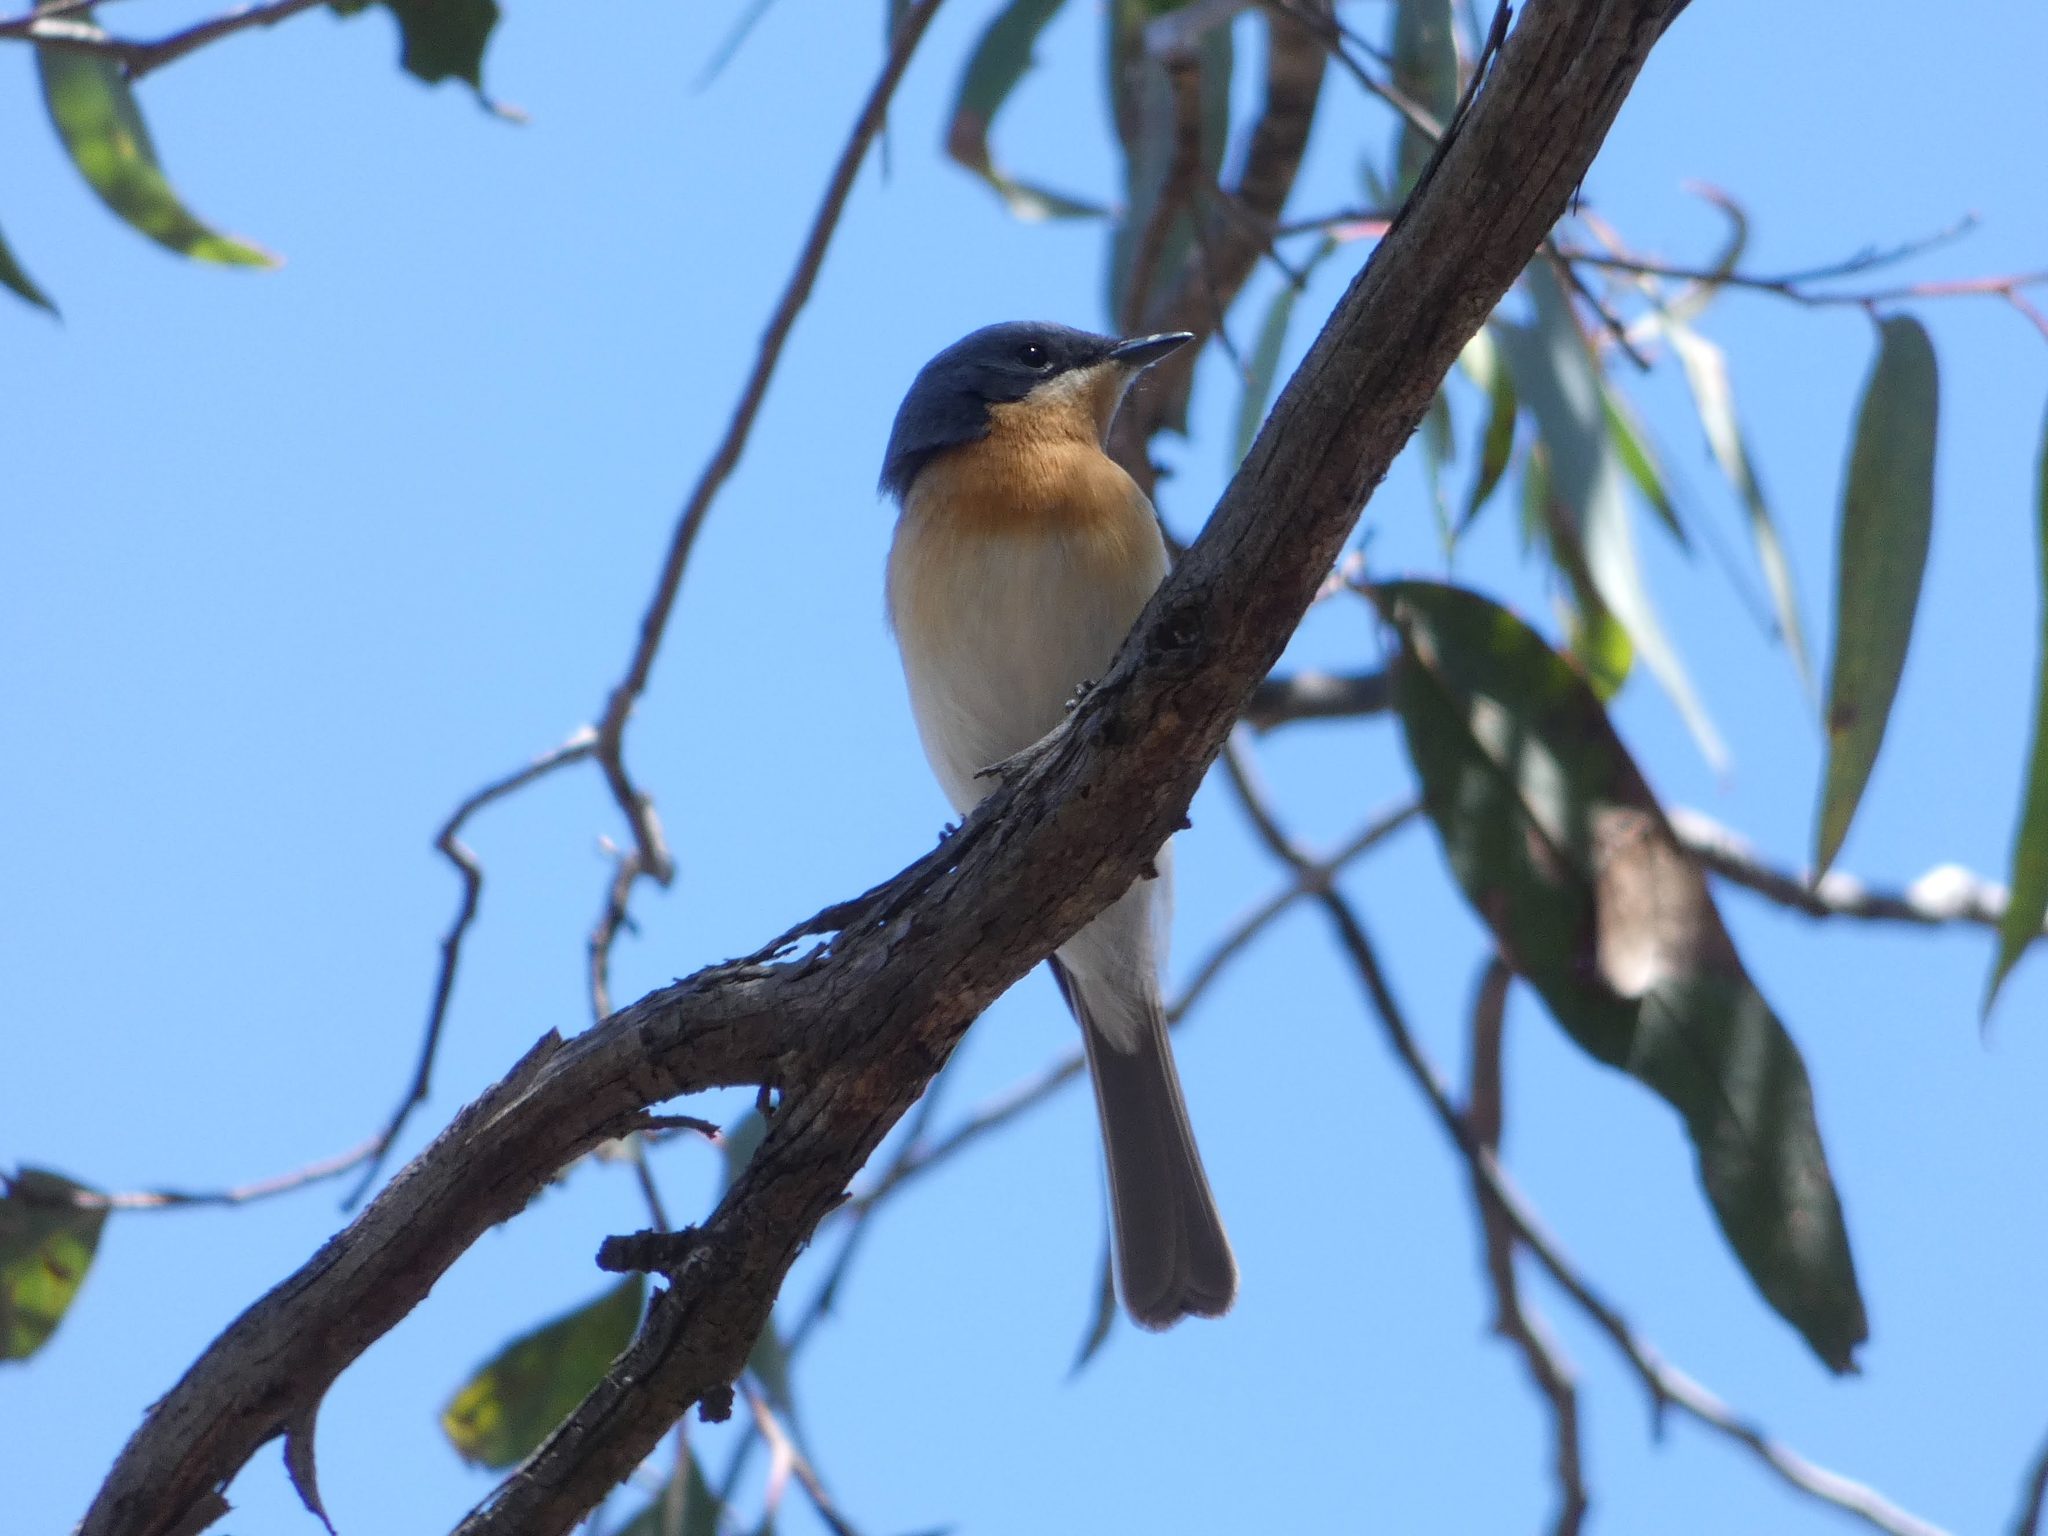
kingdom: Animalia
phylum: Chordata
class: Aves
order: Passeriformes
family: Monarchidae
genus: Myiagra
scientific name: Myiagra rubecula
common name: Leaden flycatcher
